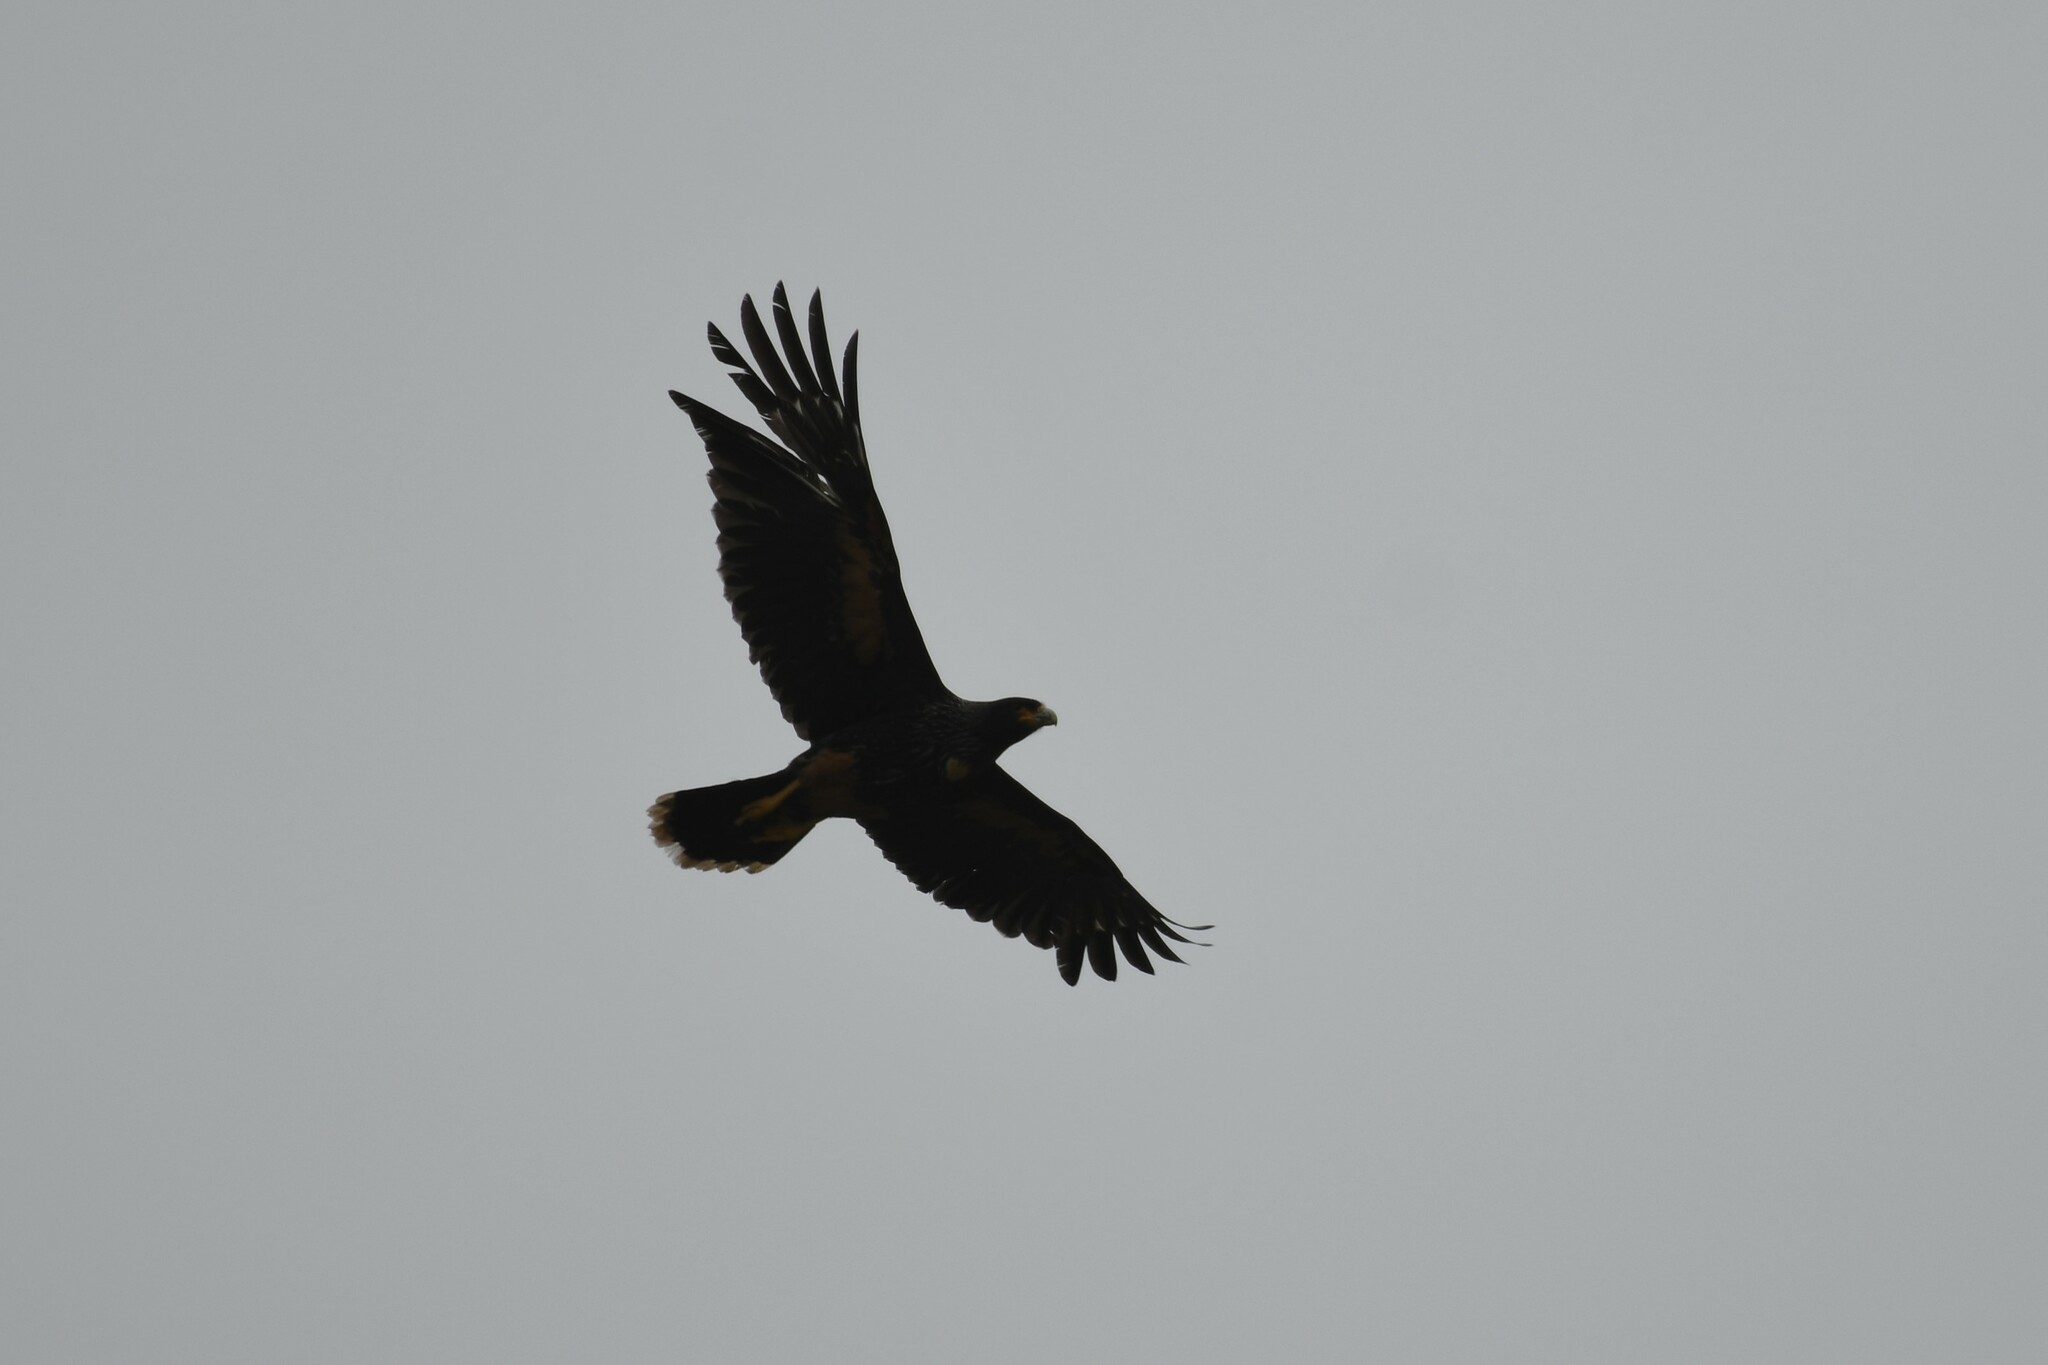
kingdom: Animalia
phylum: Chordata
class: Aves
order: Falconiformes
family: Falconidae
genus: Daptrius
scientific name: Daptrius
